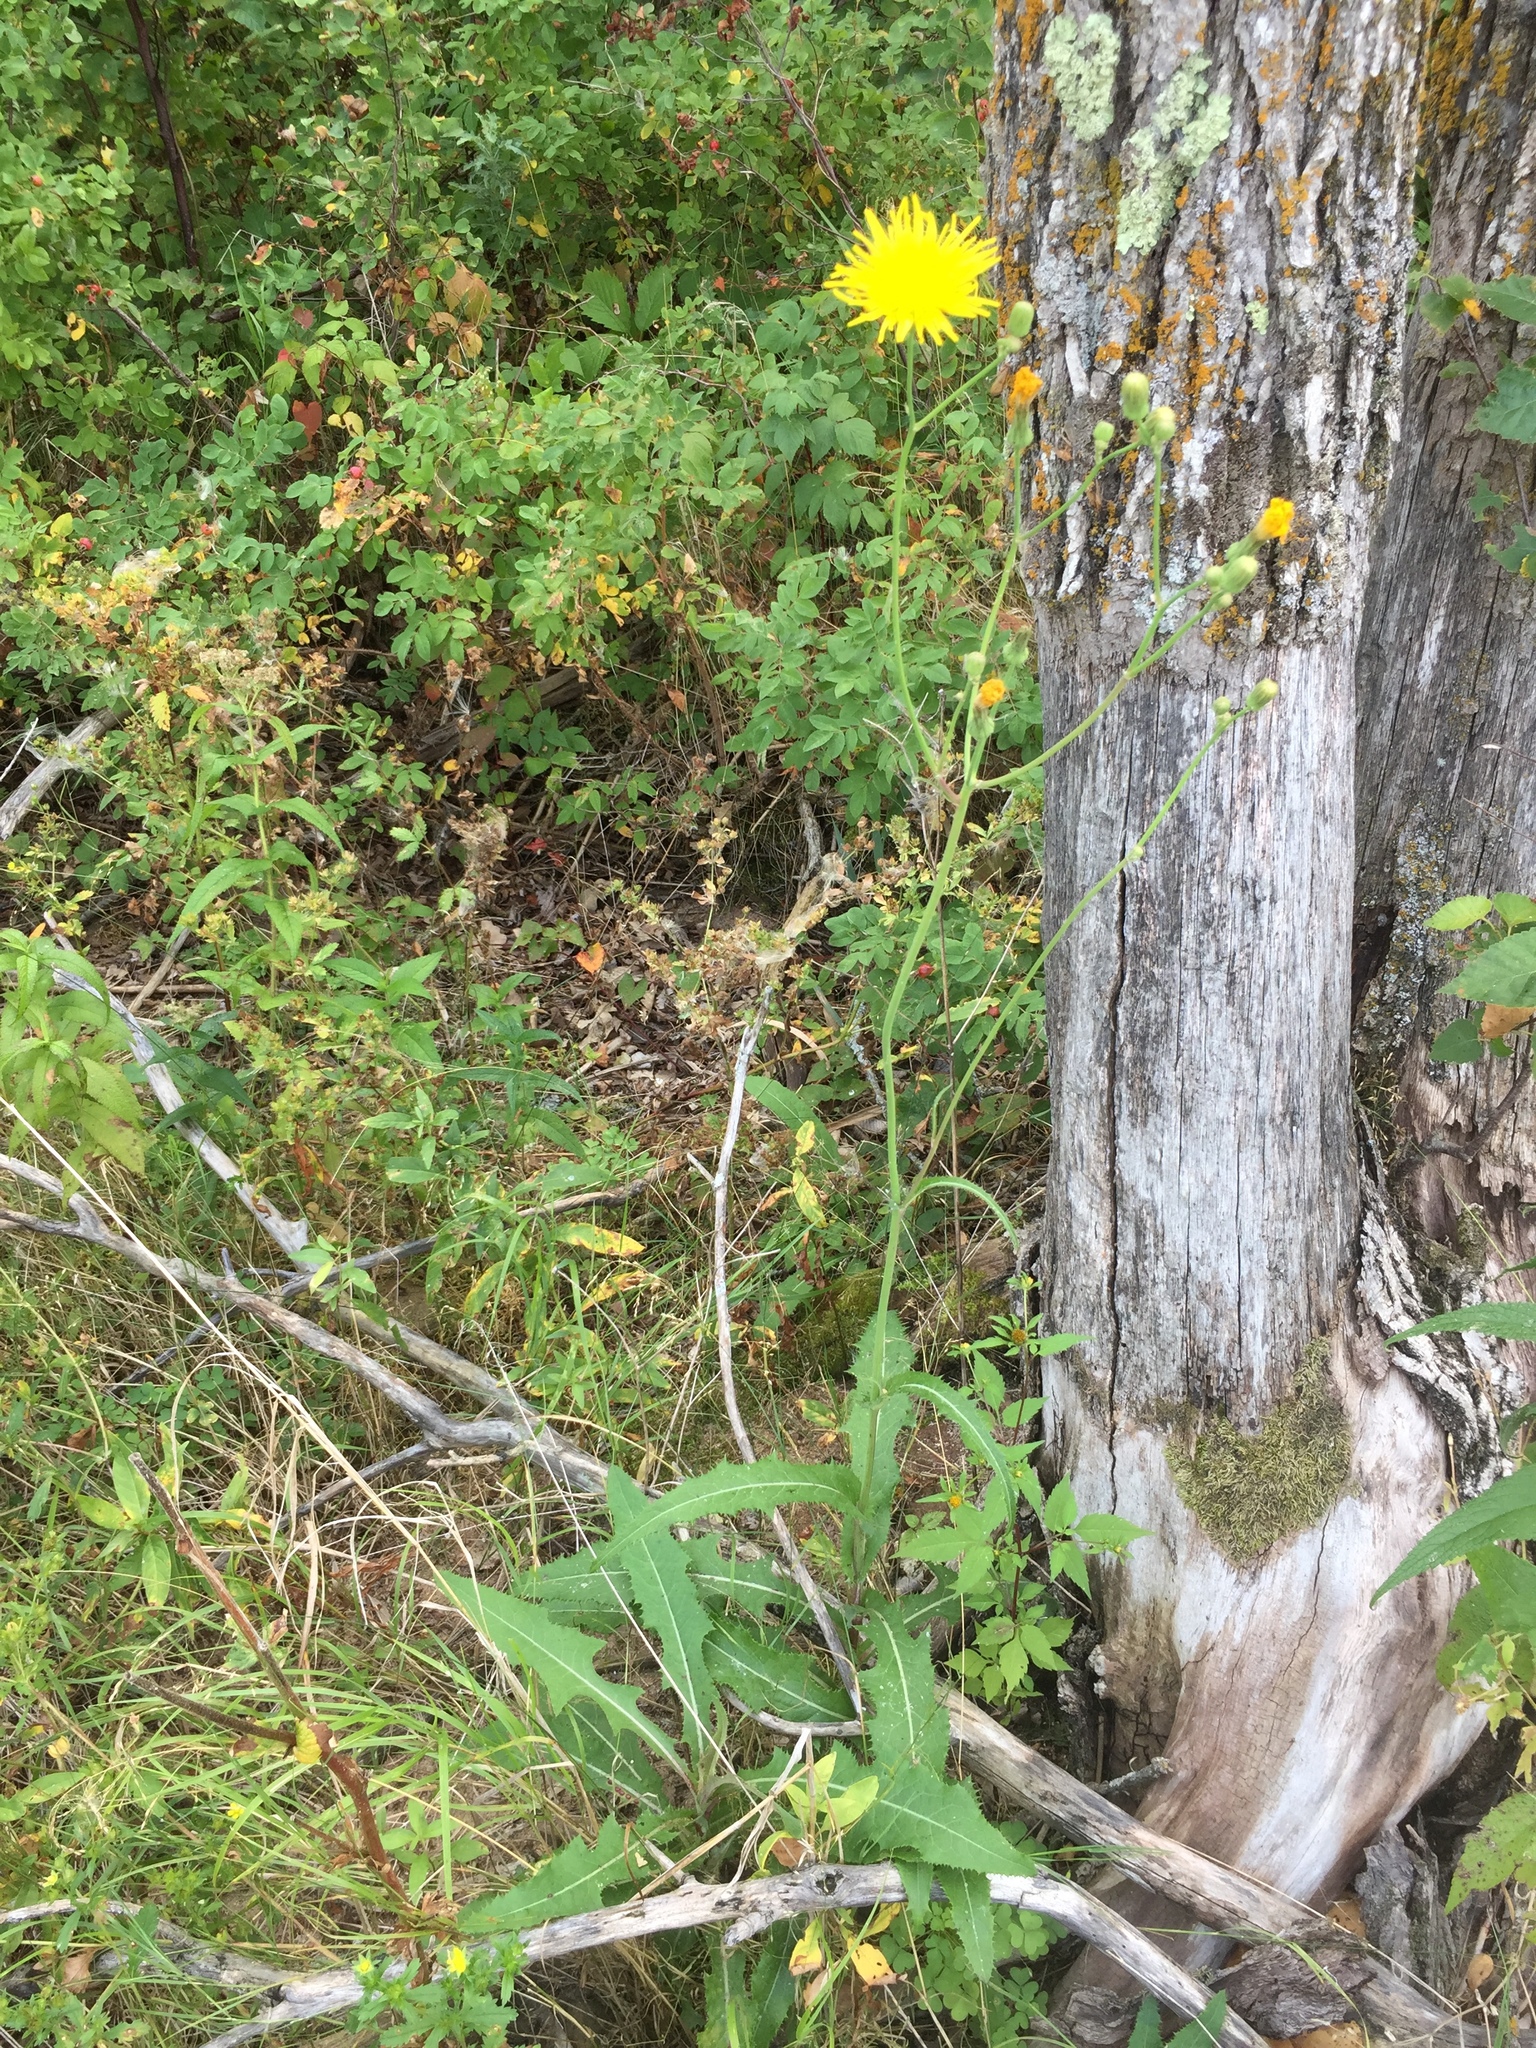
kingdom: Plantae
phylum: Tracheophyta
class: Magnoliopsida
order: Asterales
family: Asteraceae
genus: Sonchus
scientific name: Sonchus arvensis
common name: Perennial sow-thistle
